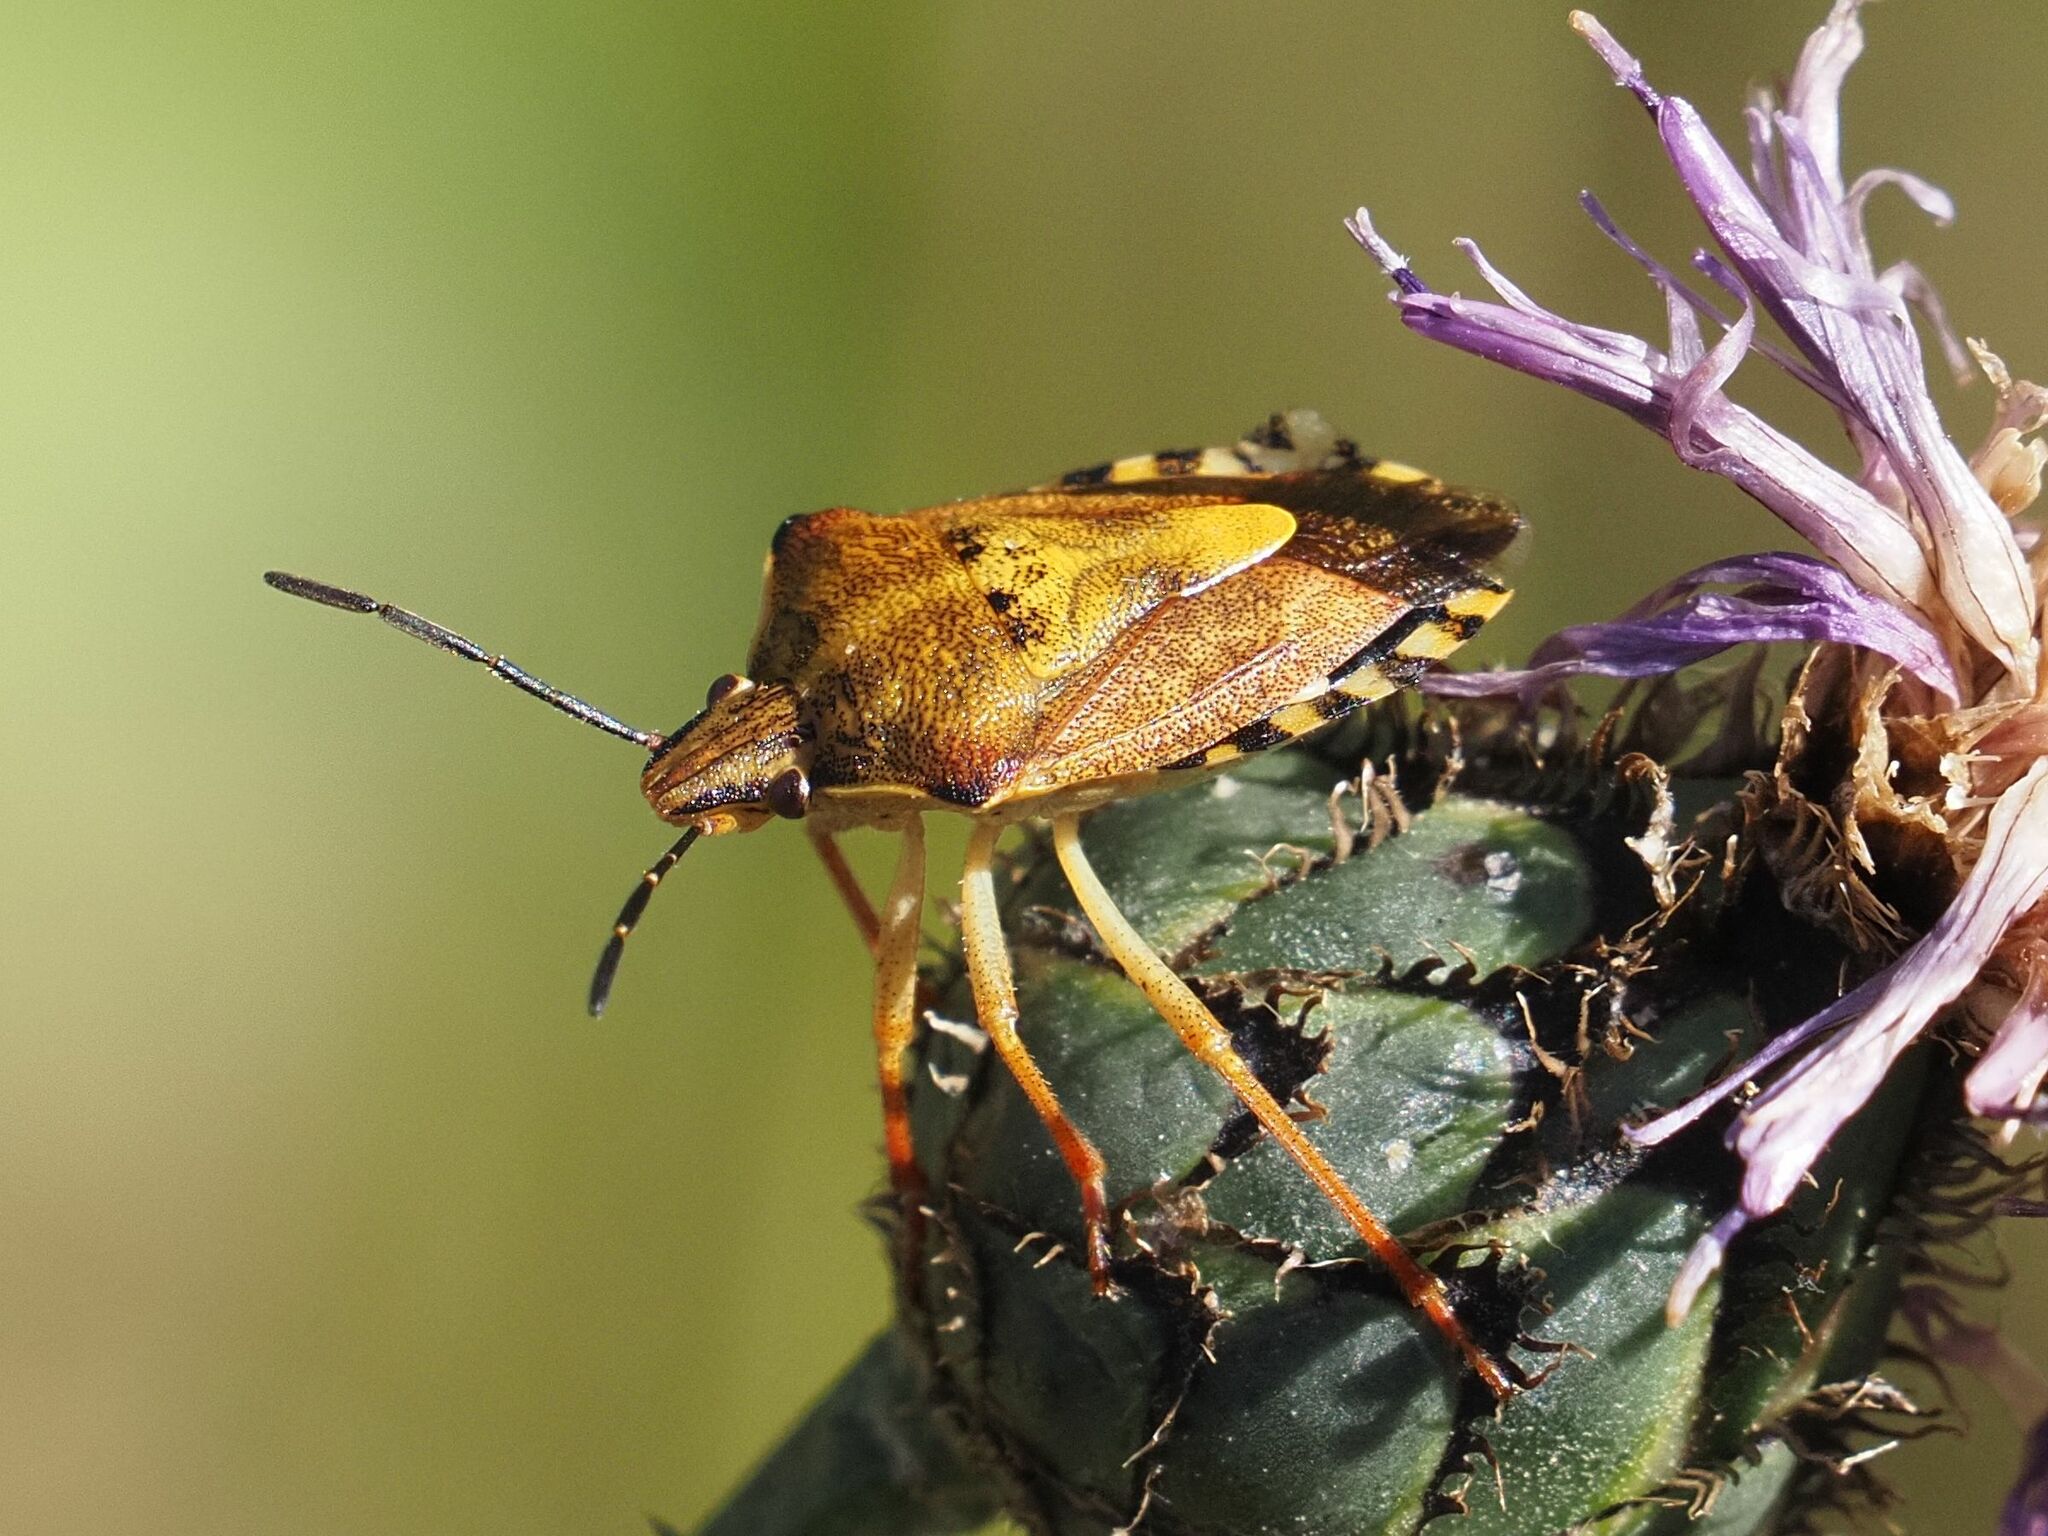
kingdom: Animalia
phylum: Arthropoda
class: Insecta
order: Hemiptera
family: Pentatomidae
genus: Carpocoris
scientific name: Carpocoris purpureipennis
